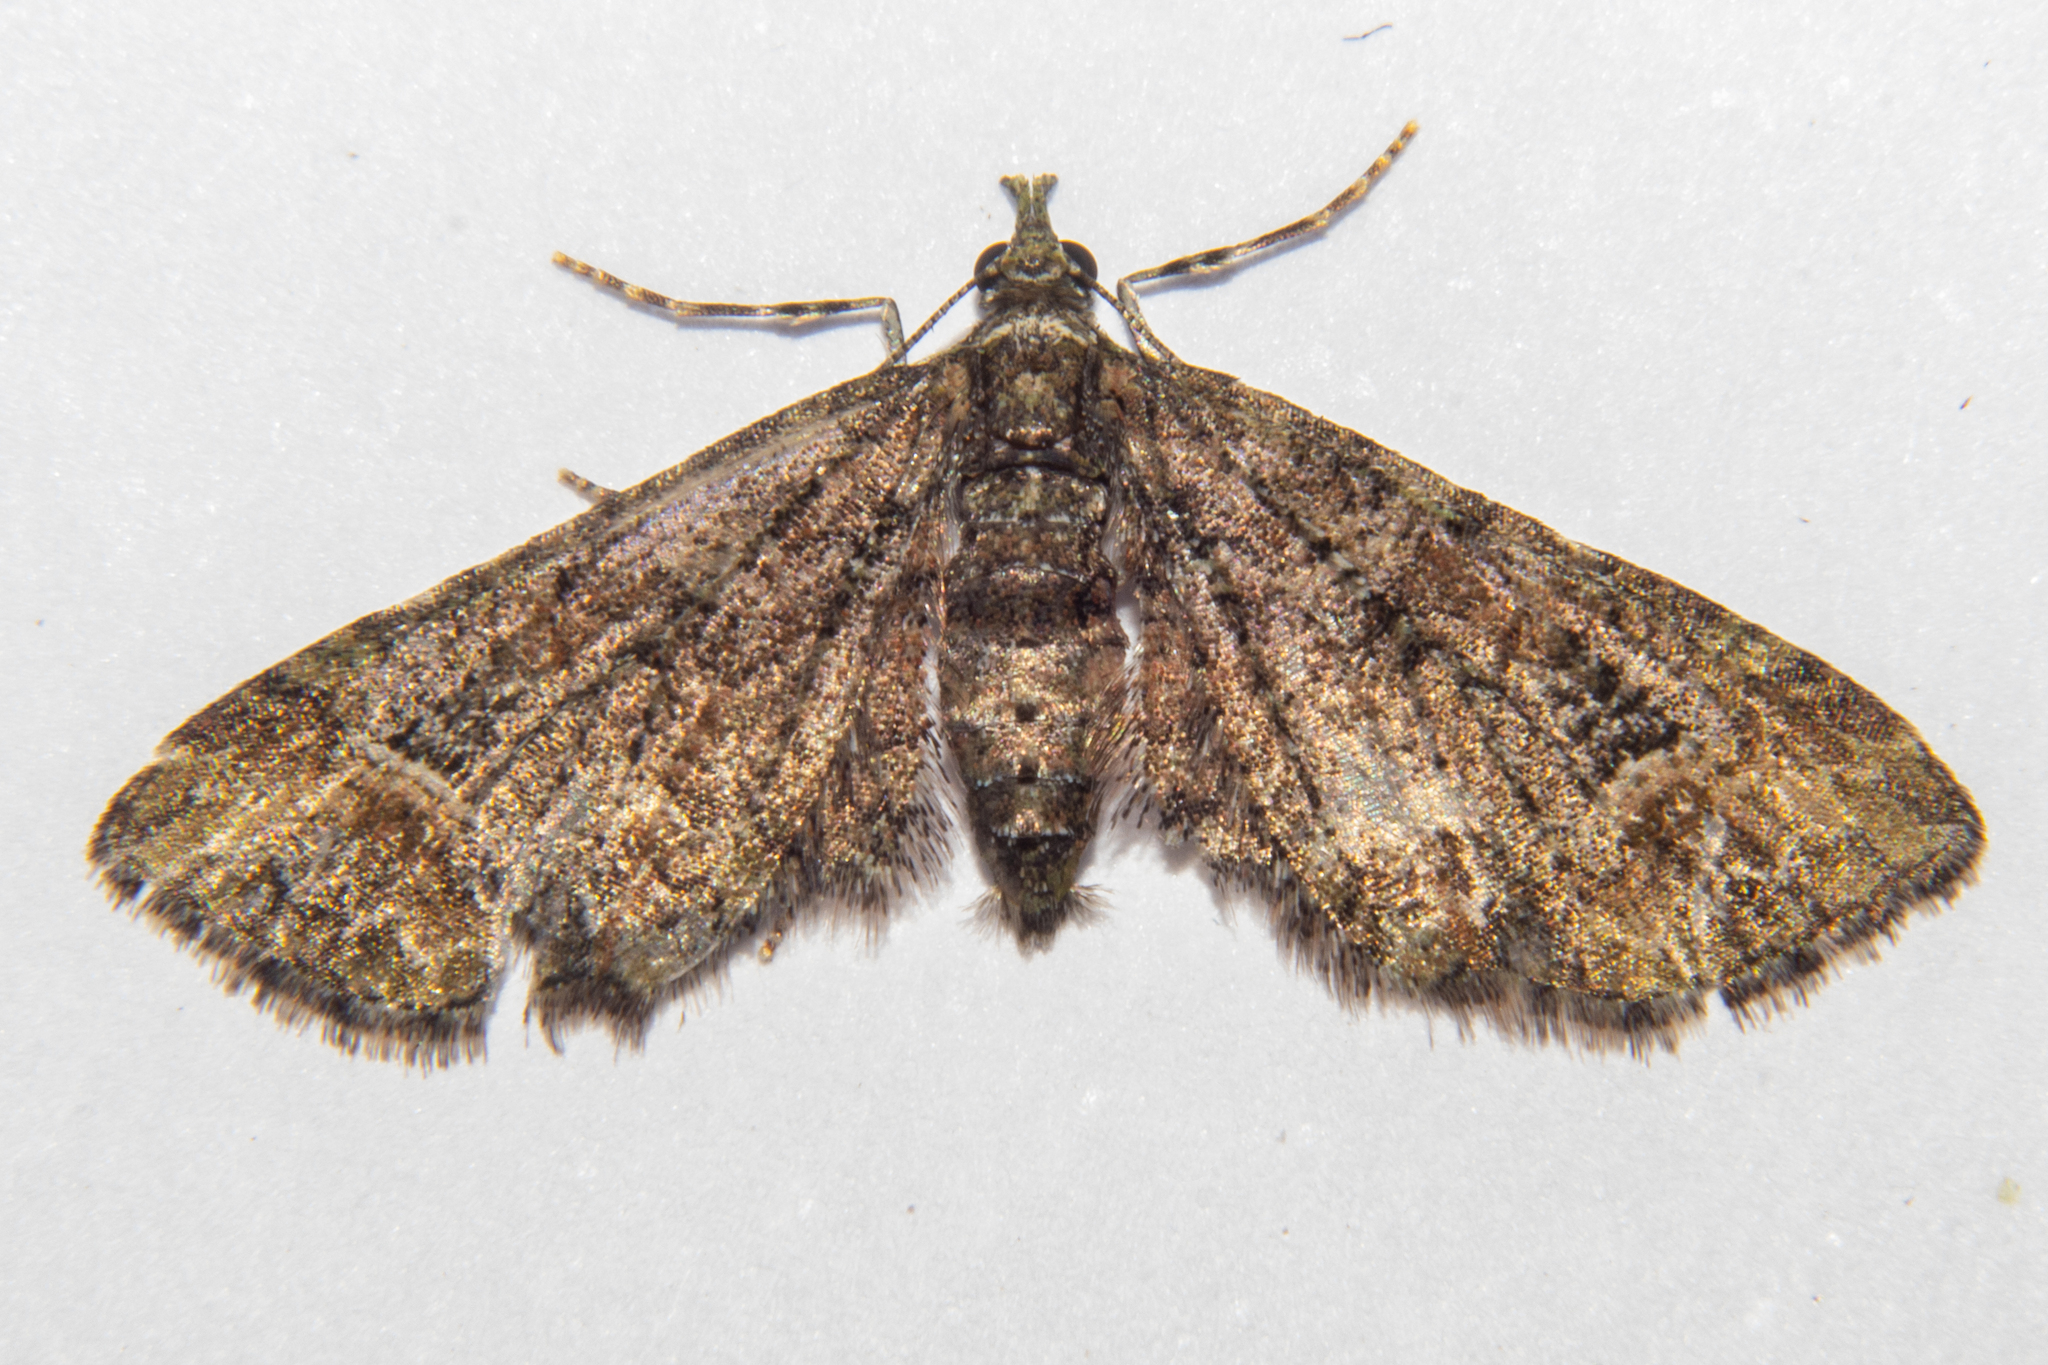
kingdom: Animalia
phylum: Arthropoda
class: Insecta
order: Lepidoptera
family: Geometridae
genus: Idaea
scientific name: Idaea mutanda
